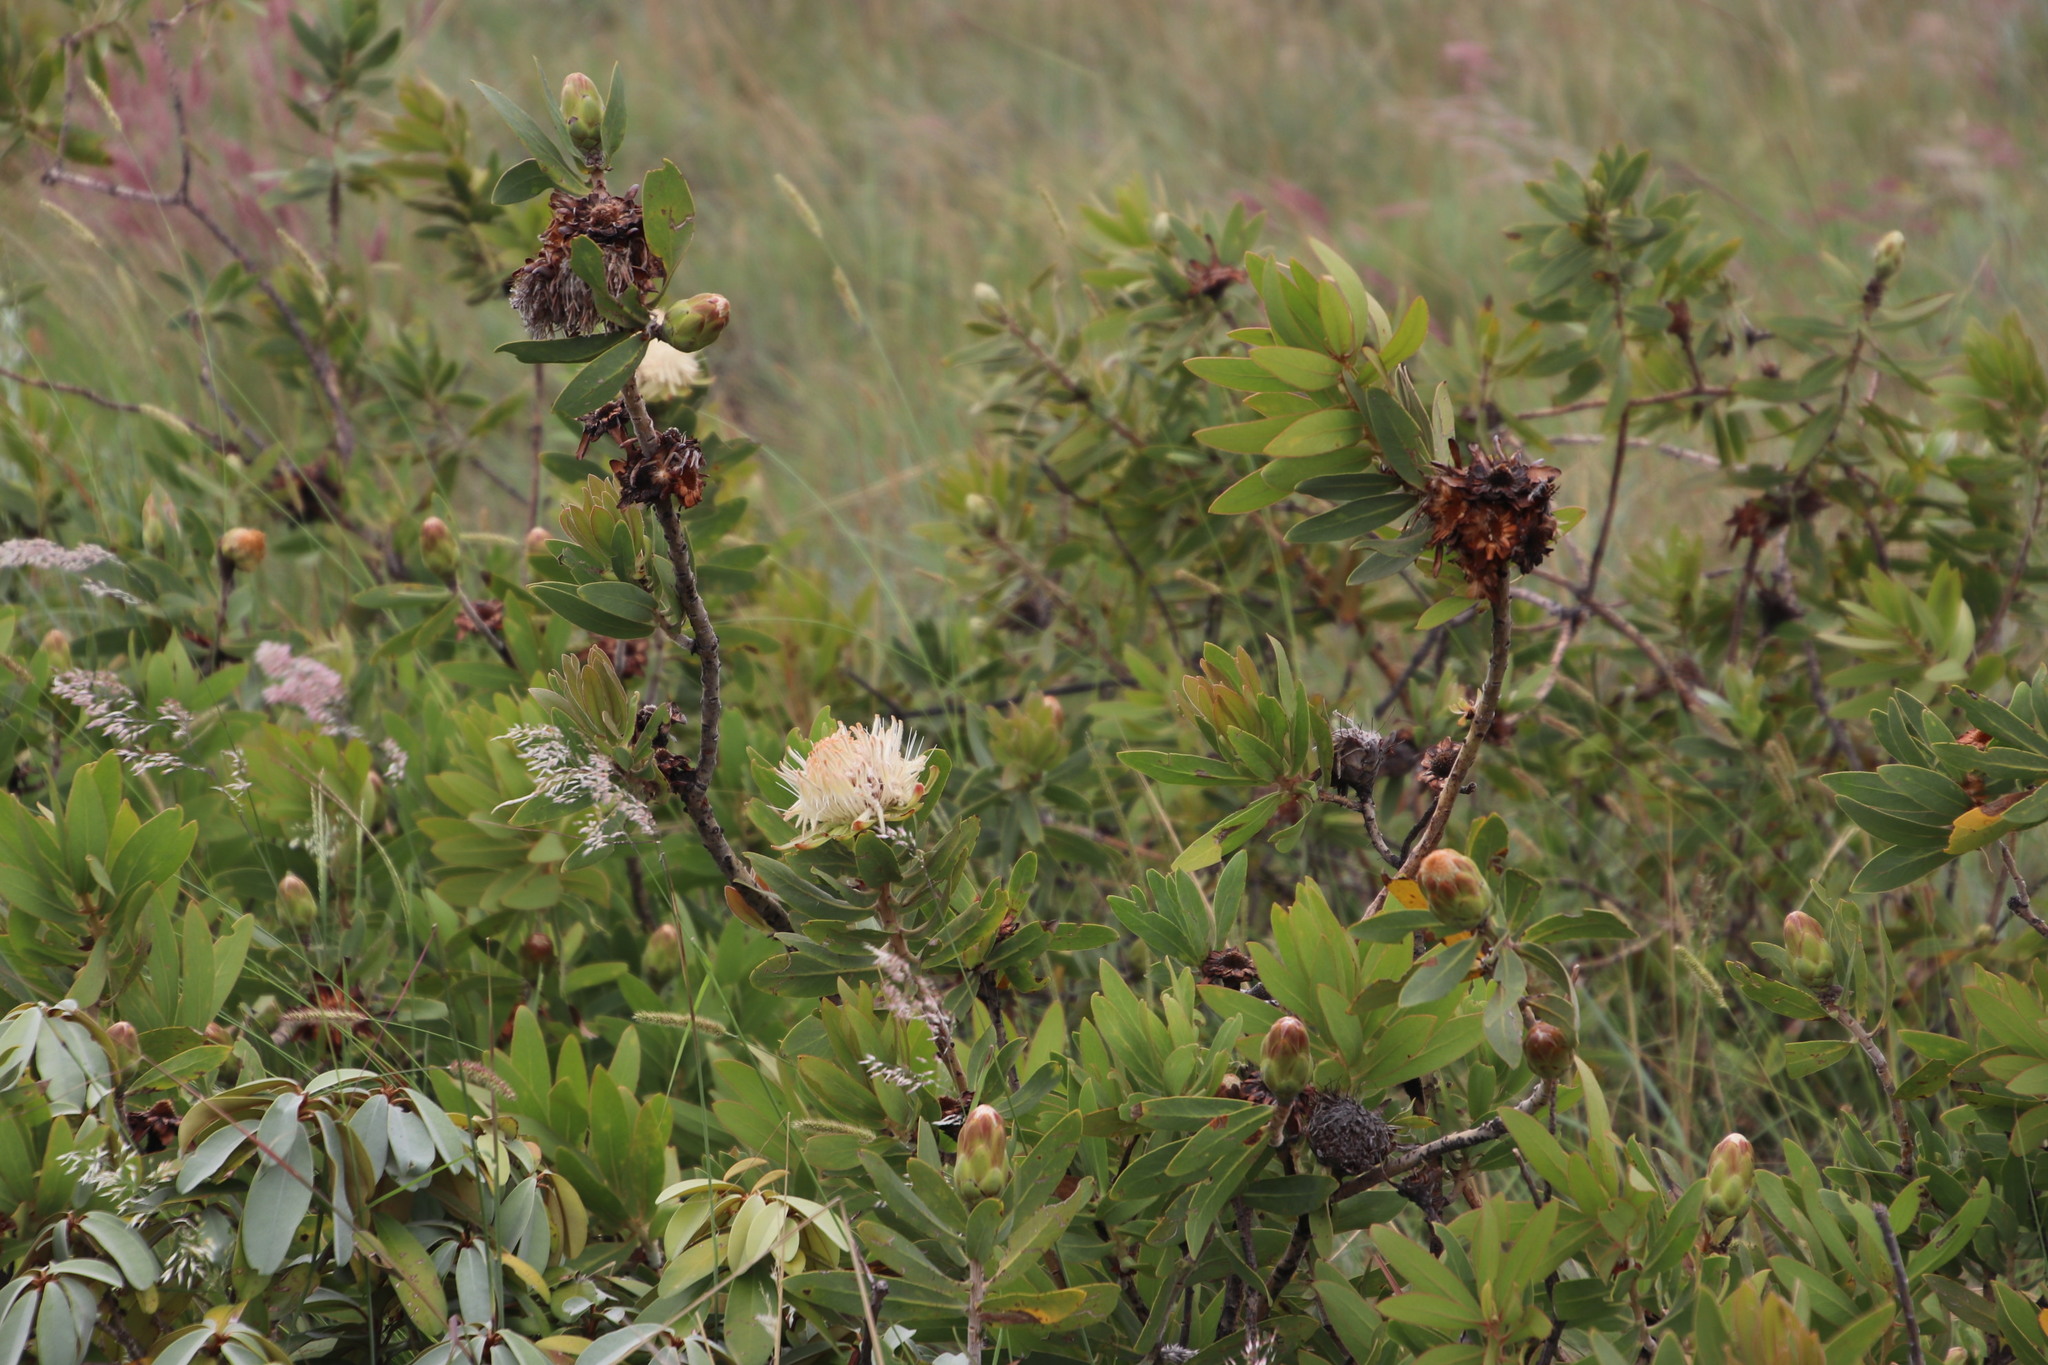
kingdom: Plantae
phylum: Tracheophyta
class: Magnoliopsida
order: Proteales
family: Proteaceae
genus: Protea
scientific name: Protea welwitschii
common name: Cluster-head protea
